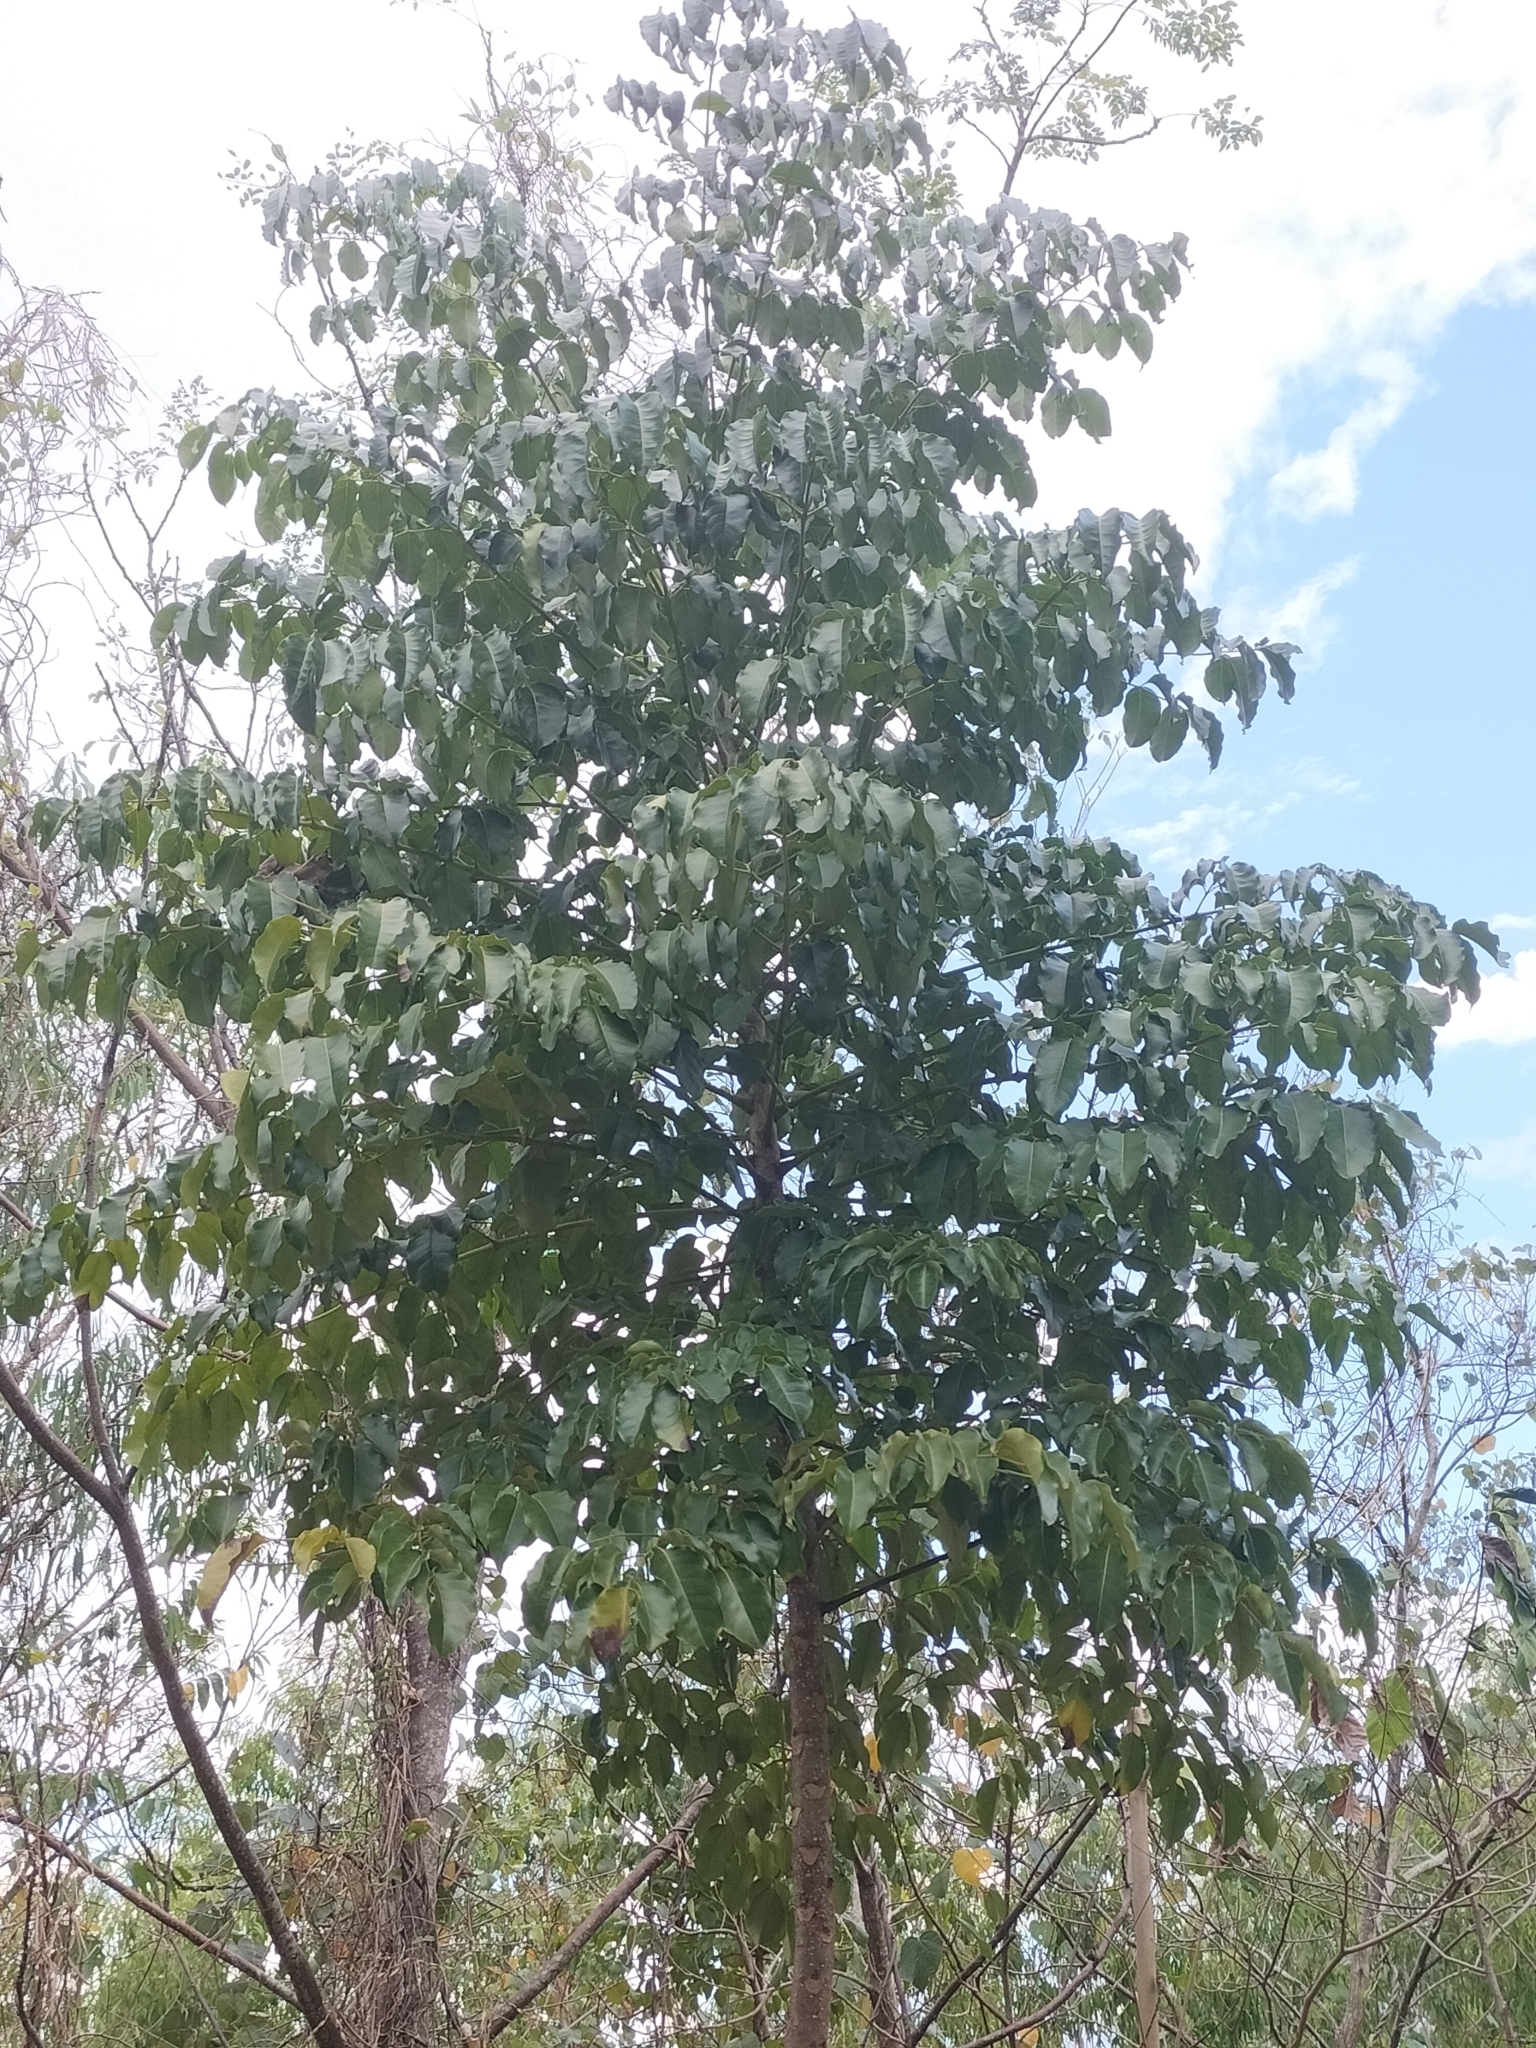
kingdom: Plantae
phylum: Tracheophyta
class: Magnoliopsida
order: Apiales
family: Araliaceae
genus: Polyscias
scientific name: Polyscias elegans
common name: Mowbulan whitewood
